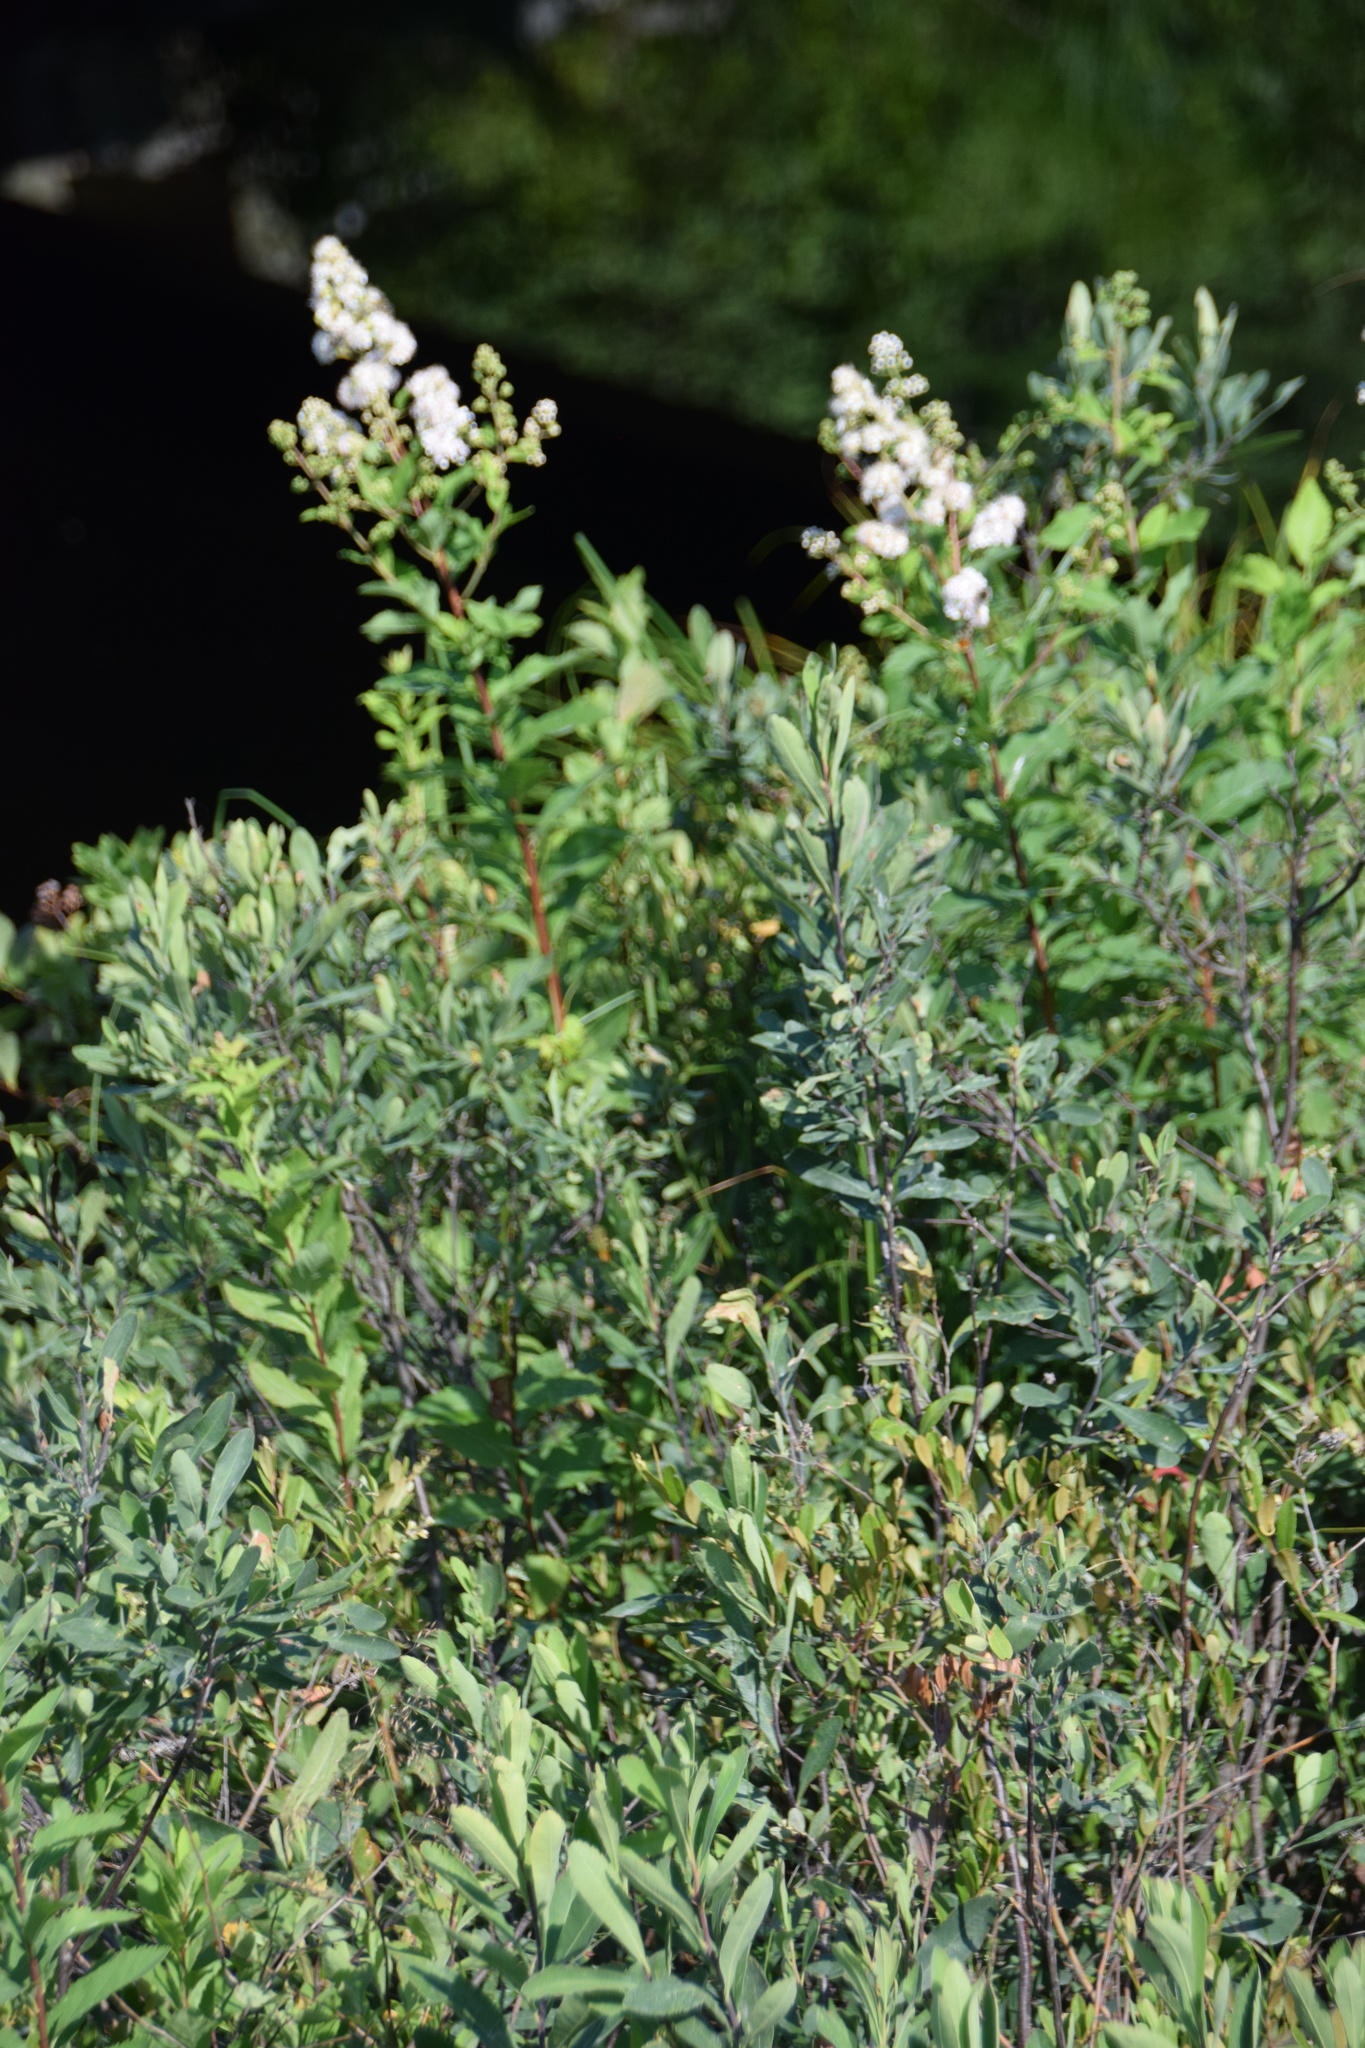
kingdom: Plantae
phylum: Tracheophyta
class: Magnoliopsida
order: Rosales
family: Rosaceae
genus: Spiraea
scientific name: Spiraea alba
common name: Pale bridewort
